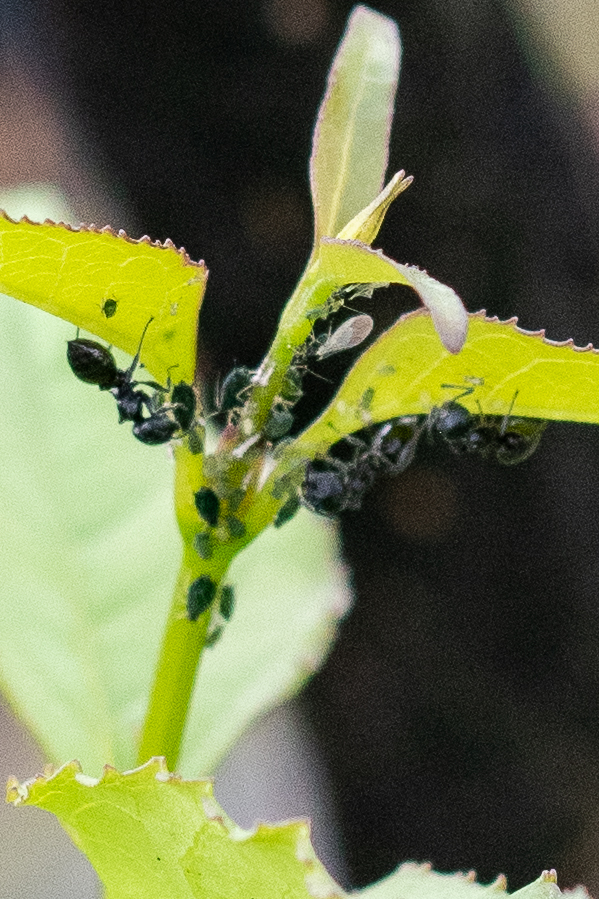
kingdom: Animalia
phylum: Arthropoda
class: Insecta
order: Hymenoptera
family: Formicidae
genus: Crematogaster
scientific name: Crematogaster peringueyi
